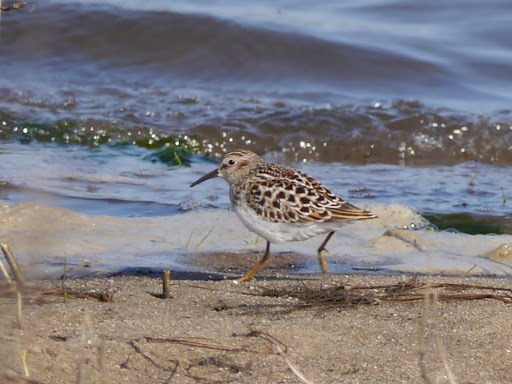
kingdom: Animalia
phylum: Chordata
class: Aves
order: Charadriiformes
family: Scolopacidae
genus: Calidris
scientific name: Calidris minutilla
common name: Least sandpiper
